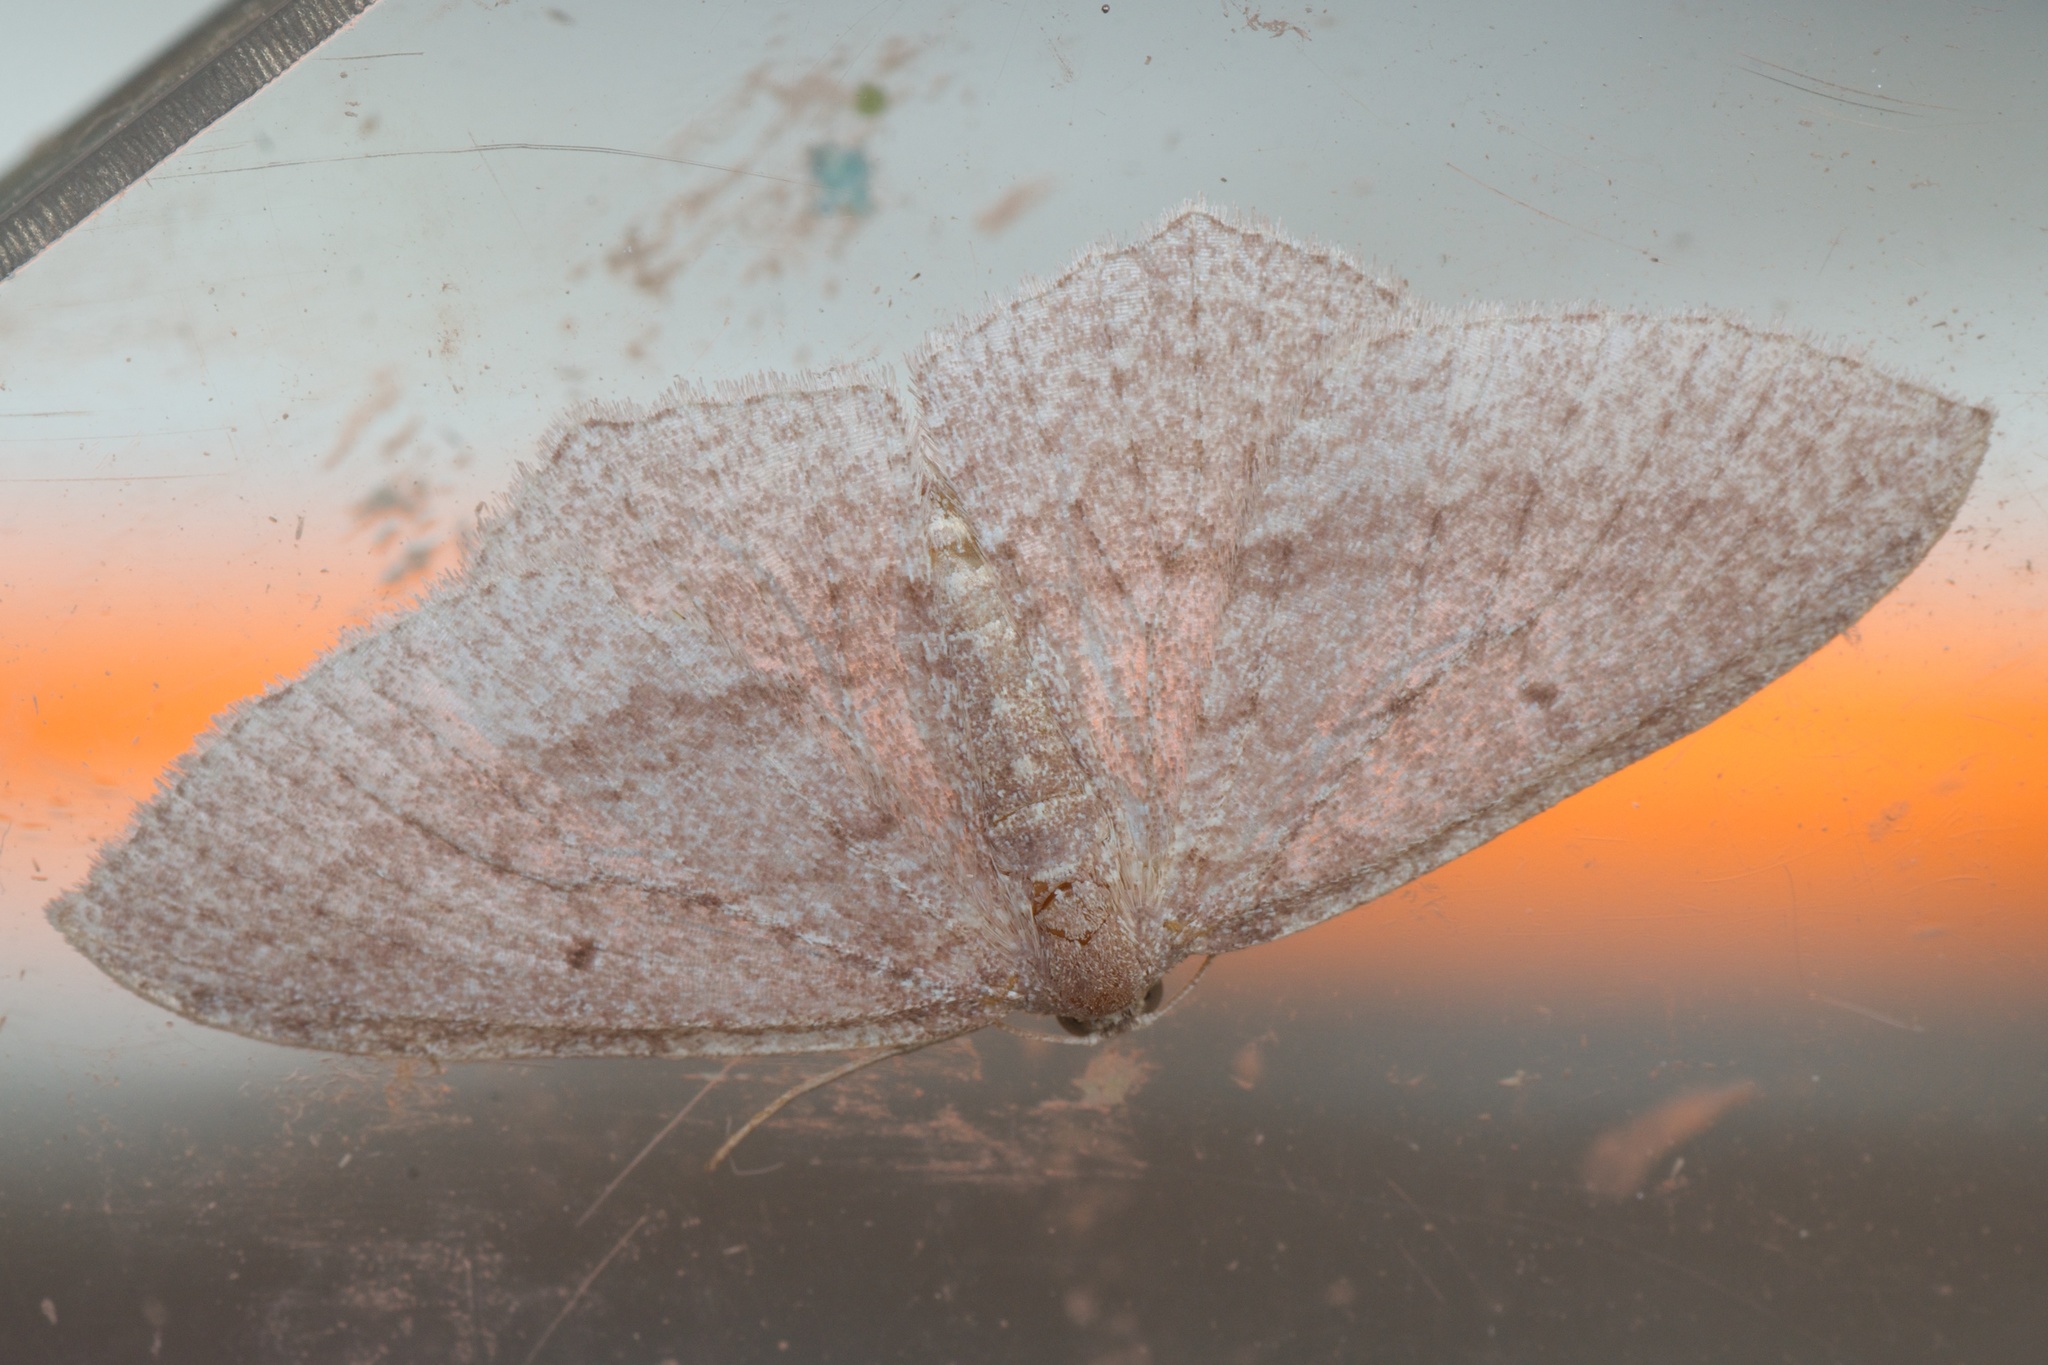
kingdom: Animalia
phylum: Arthropoda
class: Insecta
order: Lepidoptera
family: Geometridae
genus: Poecilasthena
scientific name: Poecilasthena subpurpureata
